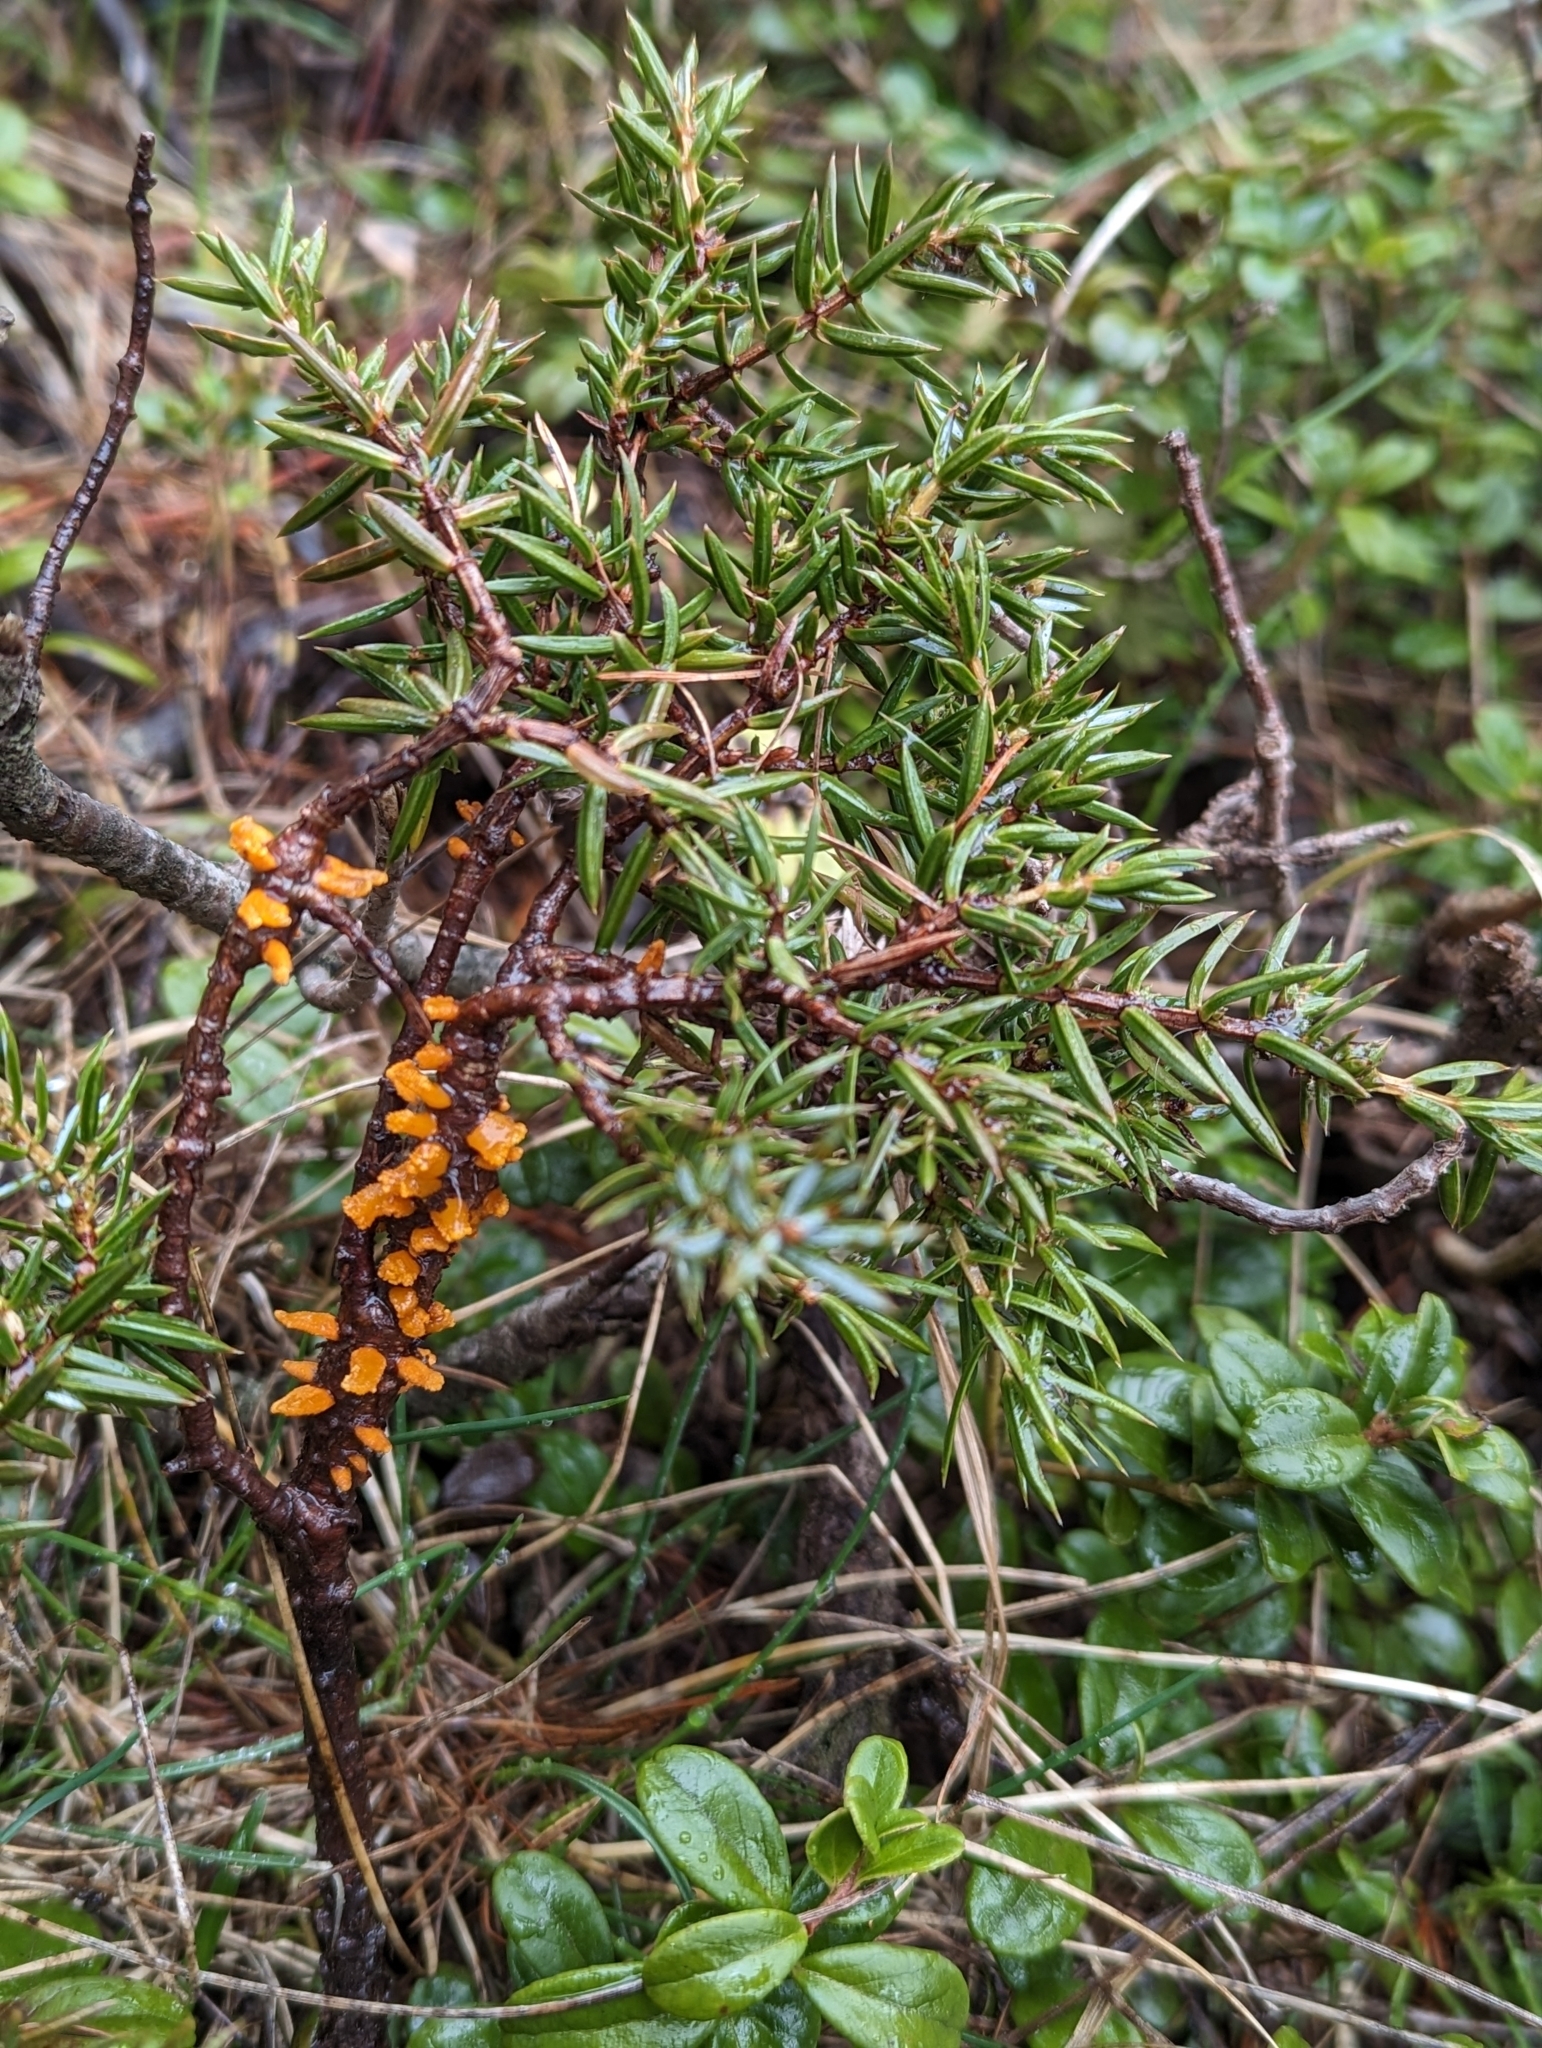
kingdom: Plantae
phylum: Tracheophyta
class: Pinopsida
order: Pinales
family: Cupressaceae
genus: Juniperus
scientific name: Juniperus communis
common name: Common juniper
